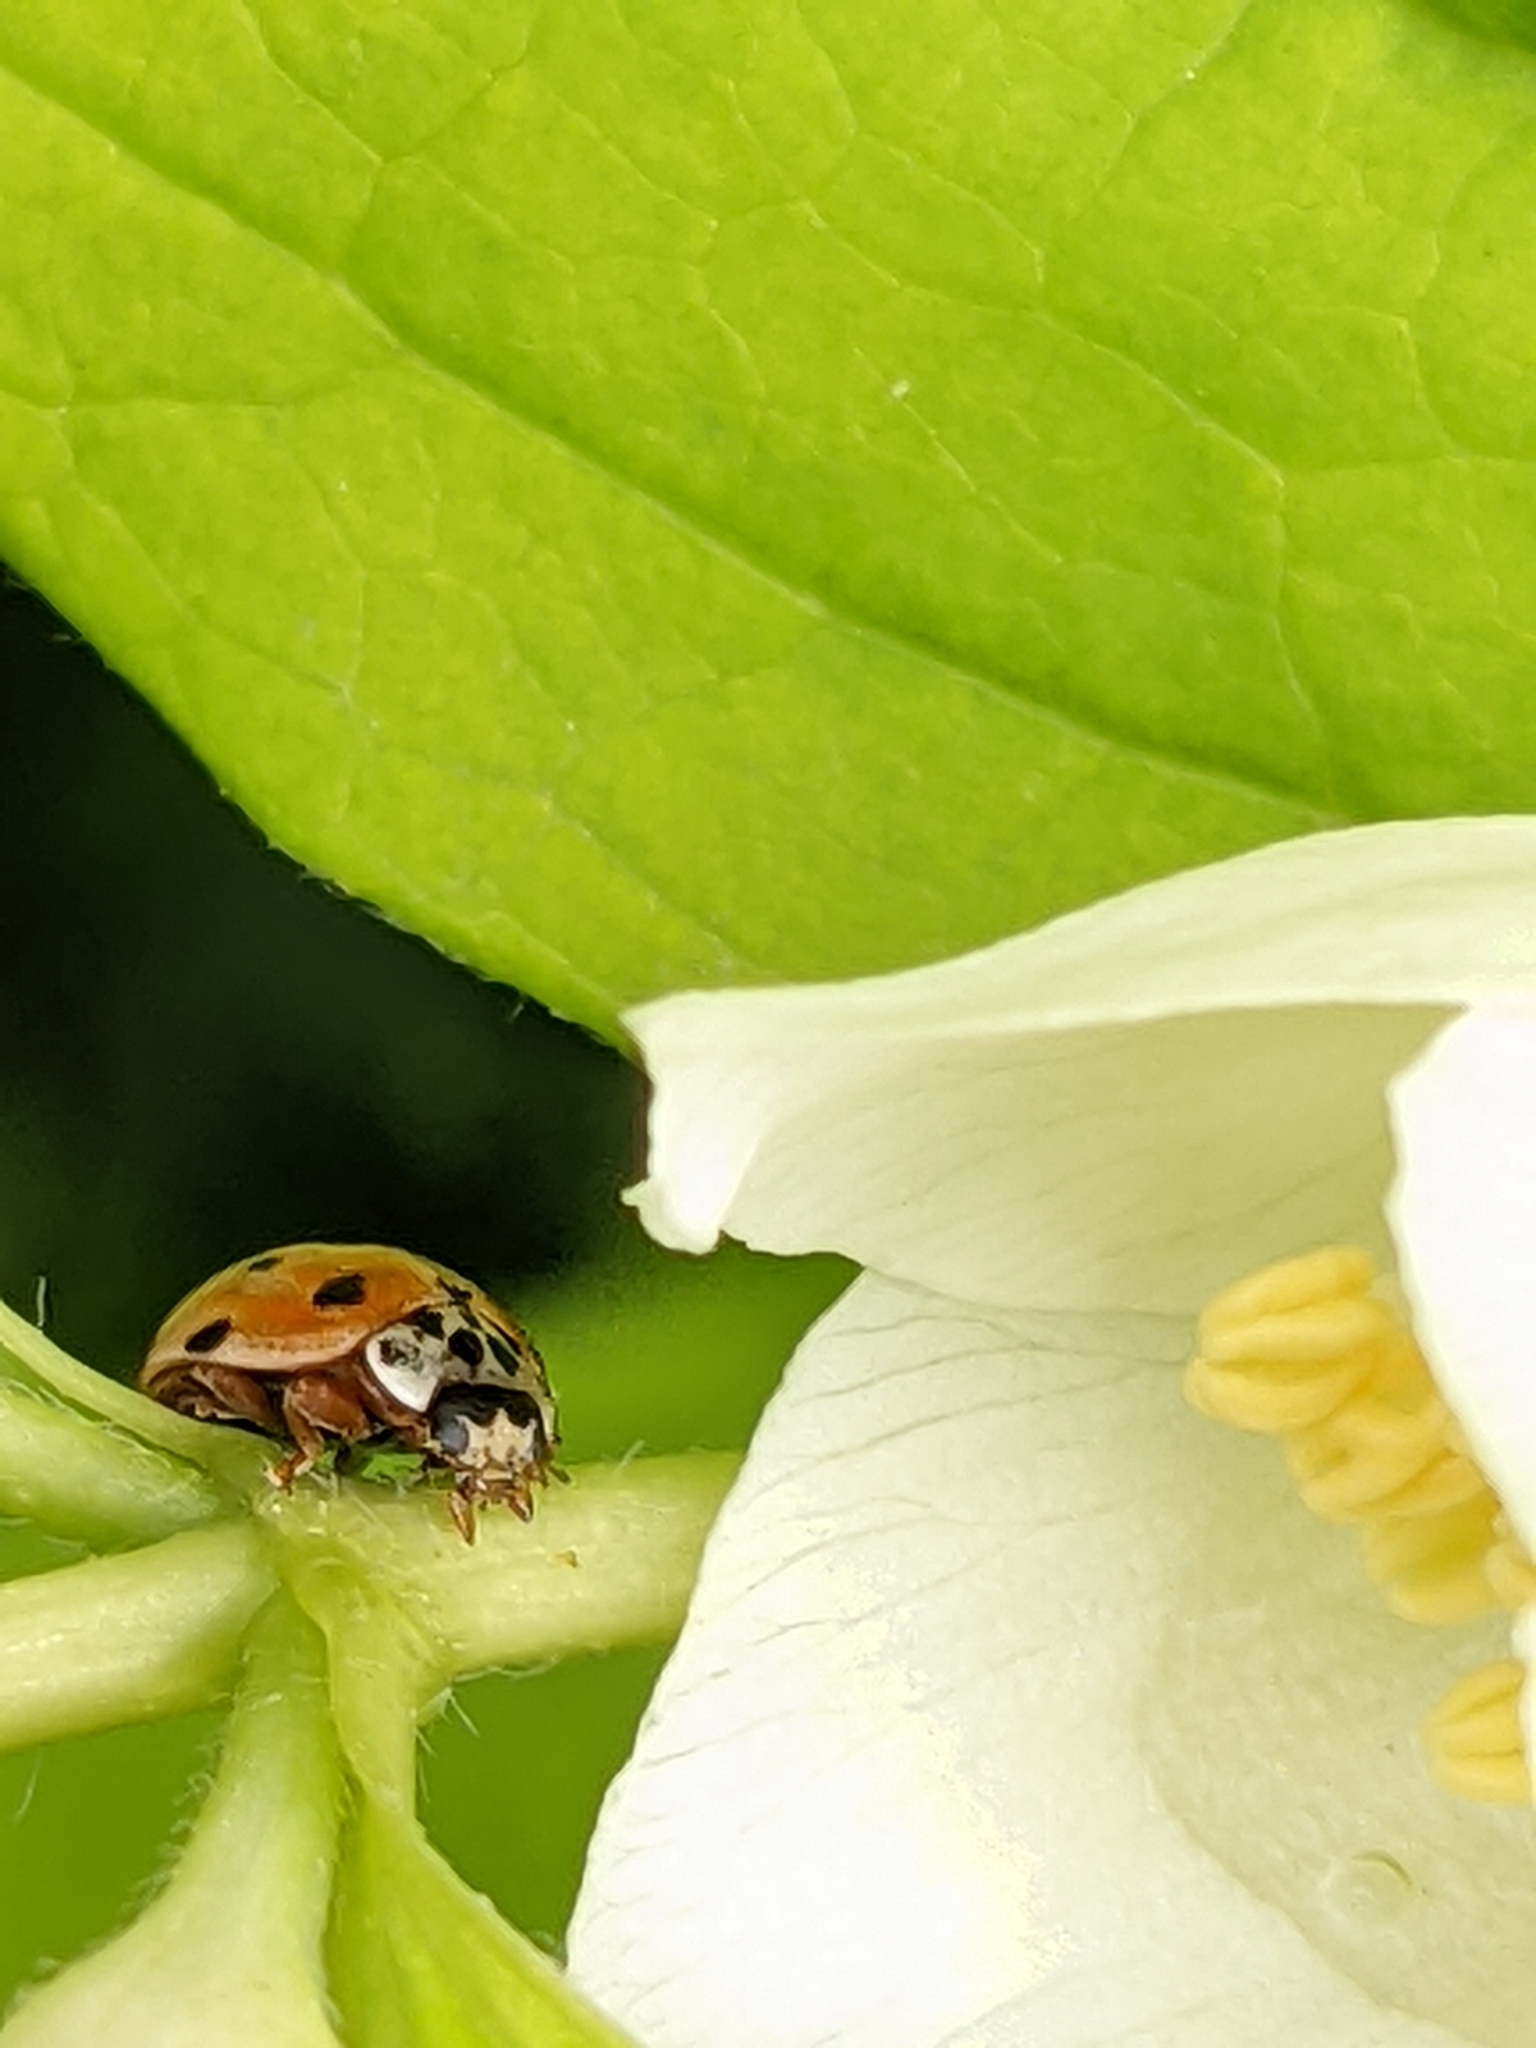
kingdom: Animalia
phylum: Arthropoda
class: Insecta
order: Coleoptera
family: Coccinellidae
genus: Adalia
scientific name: Adalia decempunctata
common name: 10-spot ladybird
